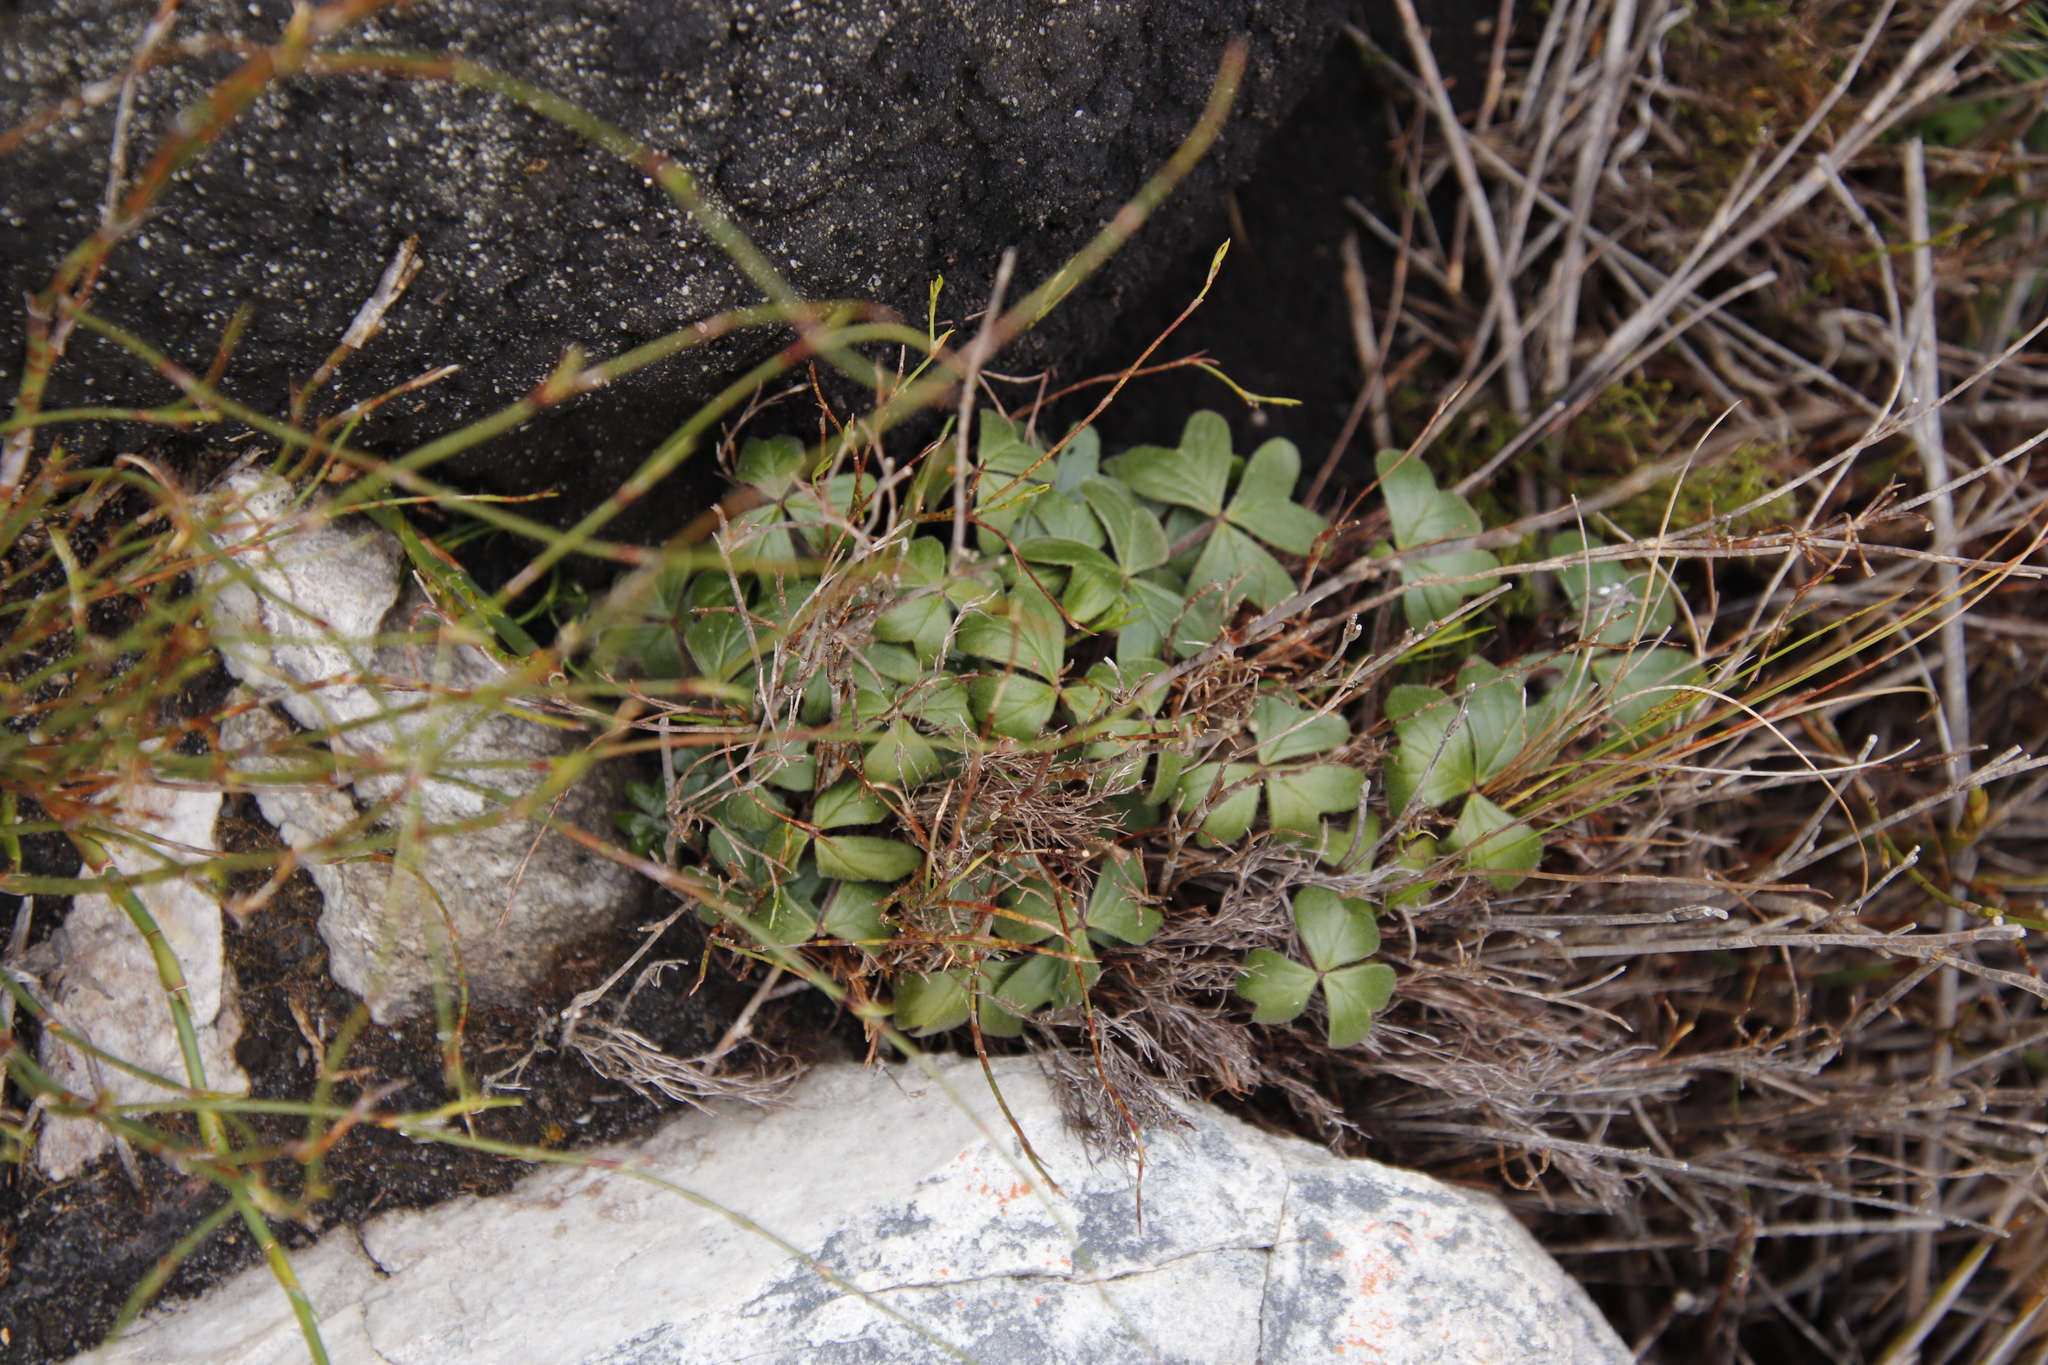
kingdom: Plantae
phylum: Tracheophyta
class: Magnoliopsida
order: Oxalidales
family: Oxalidaceae
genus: Oxalis
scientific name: Oxalis truncatula
